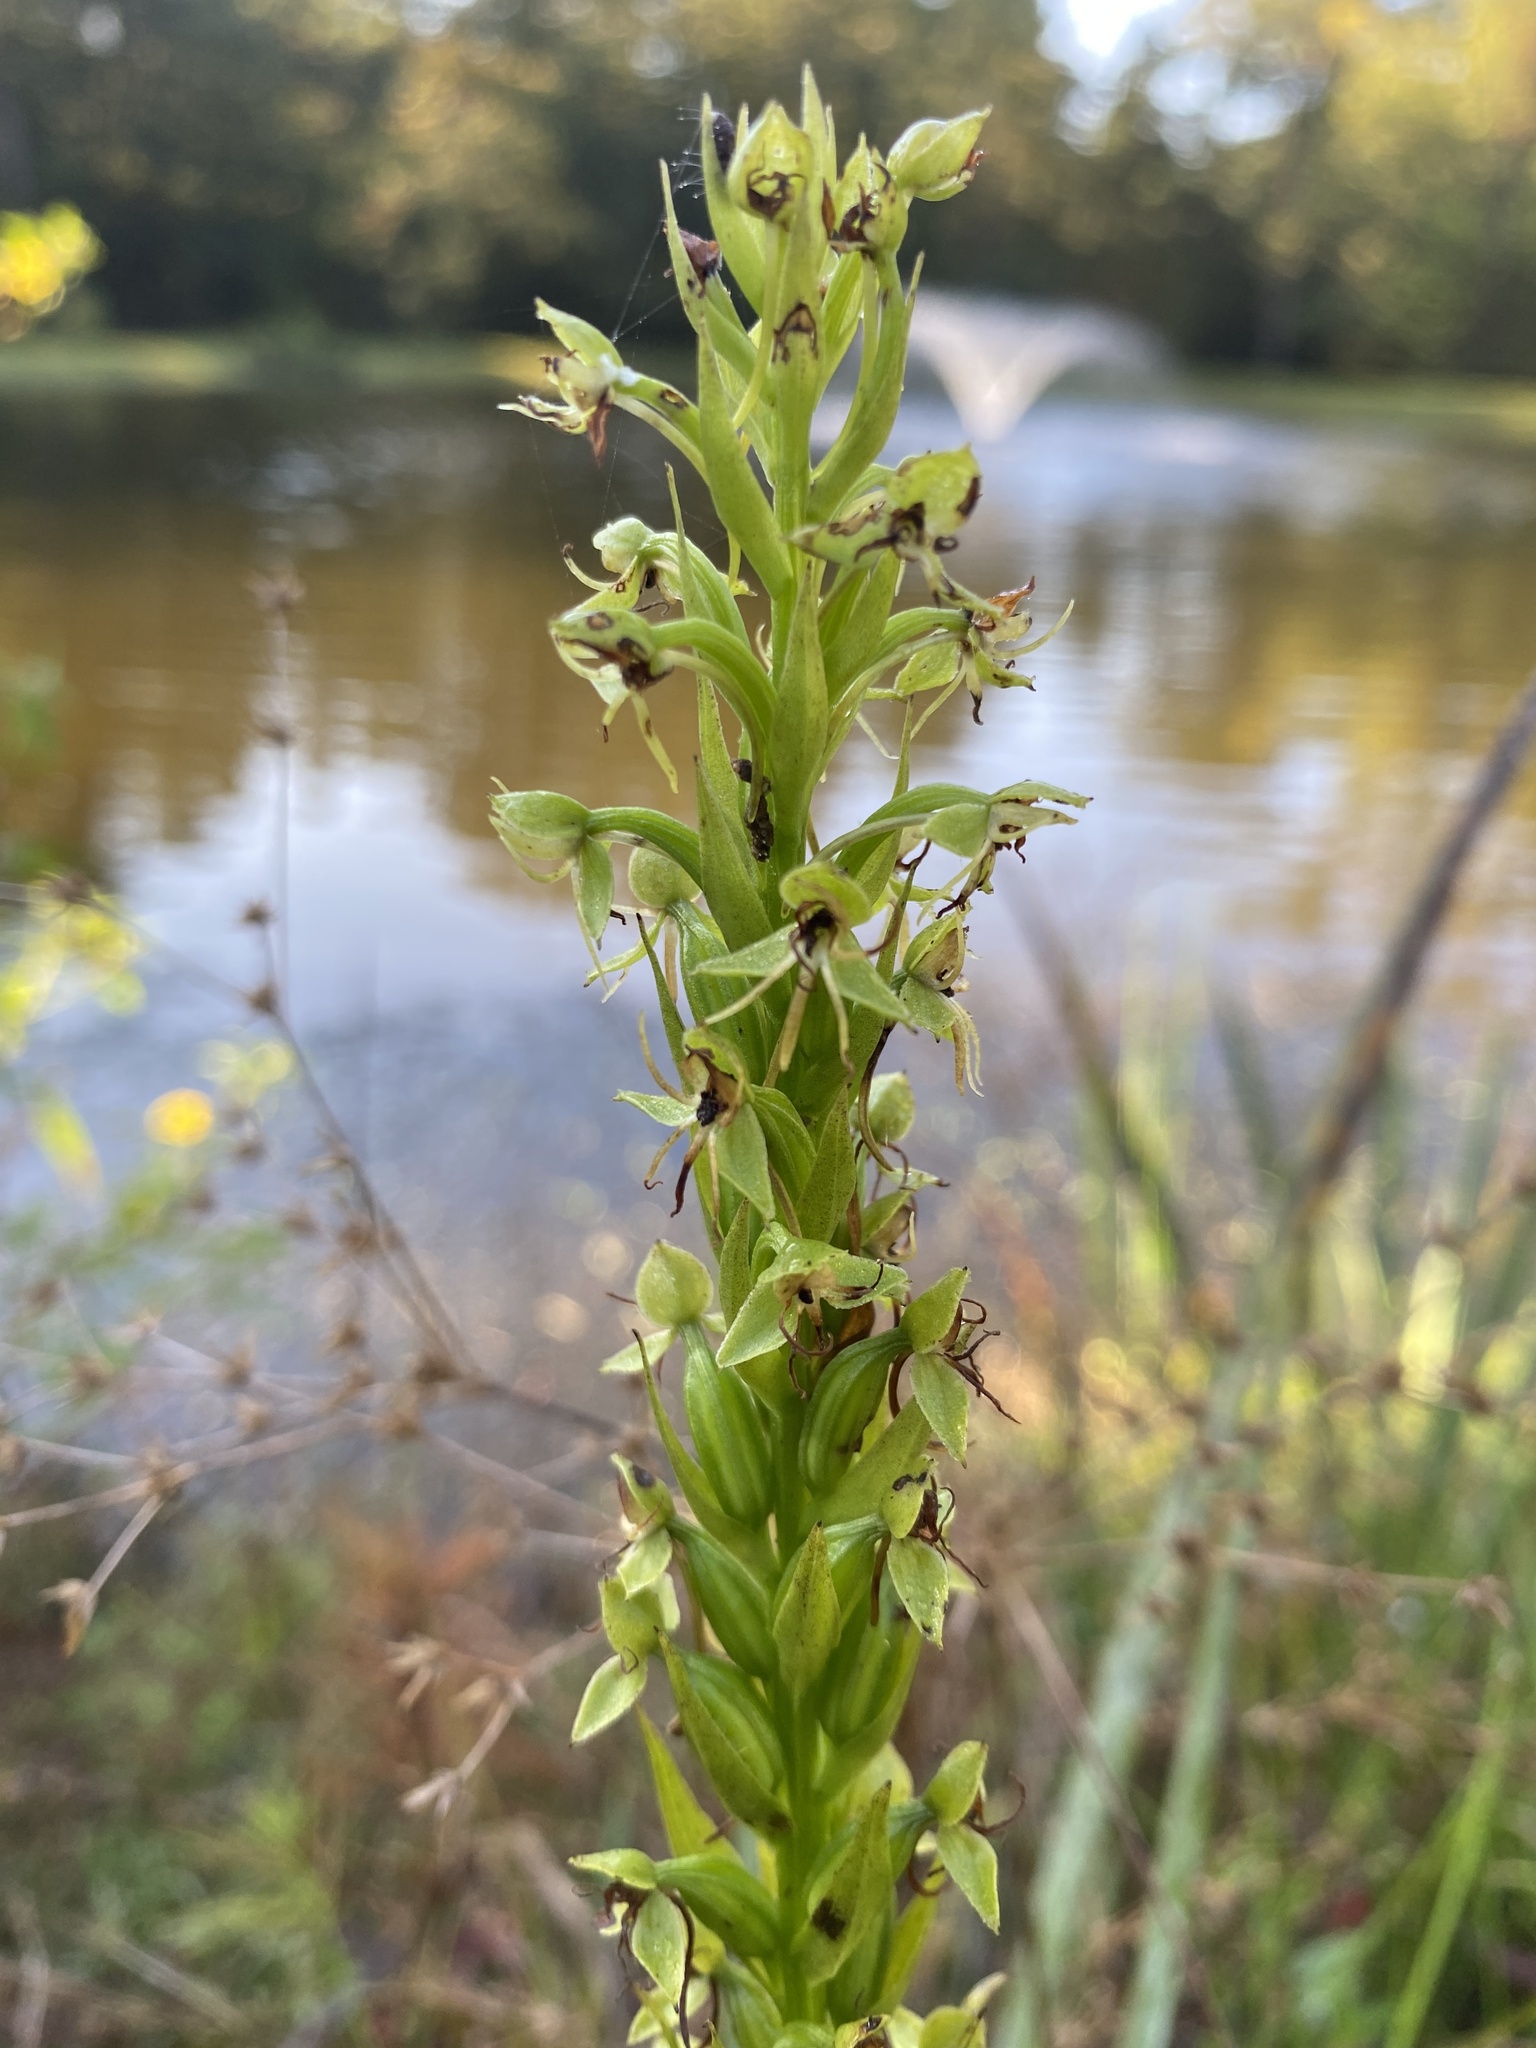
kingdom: Plantae
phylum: Tracheophyta
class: Liliopsida
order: Asparagales
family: Orchidaceae
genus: Habenaria
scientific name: Habenaria repens
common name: Water orchid
